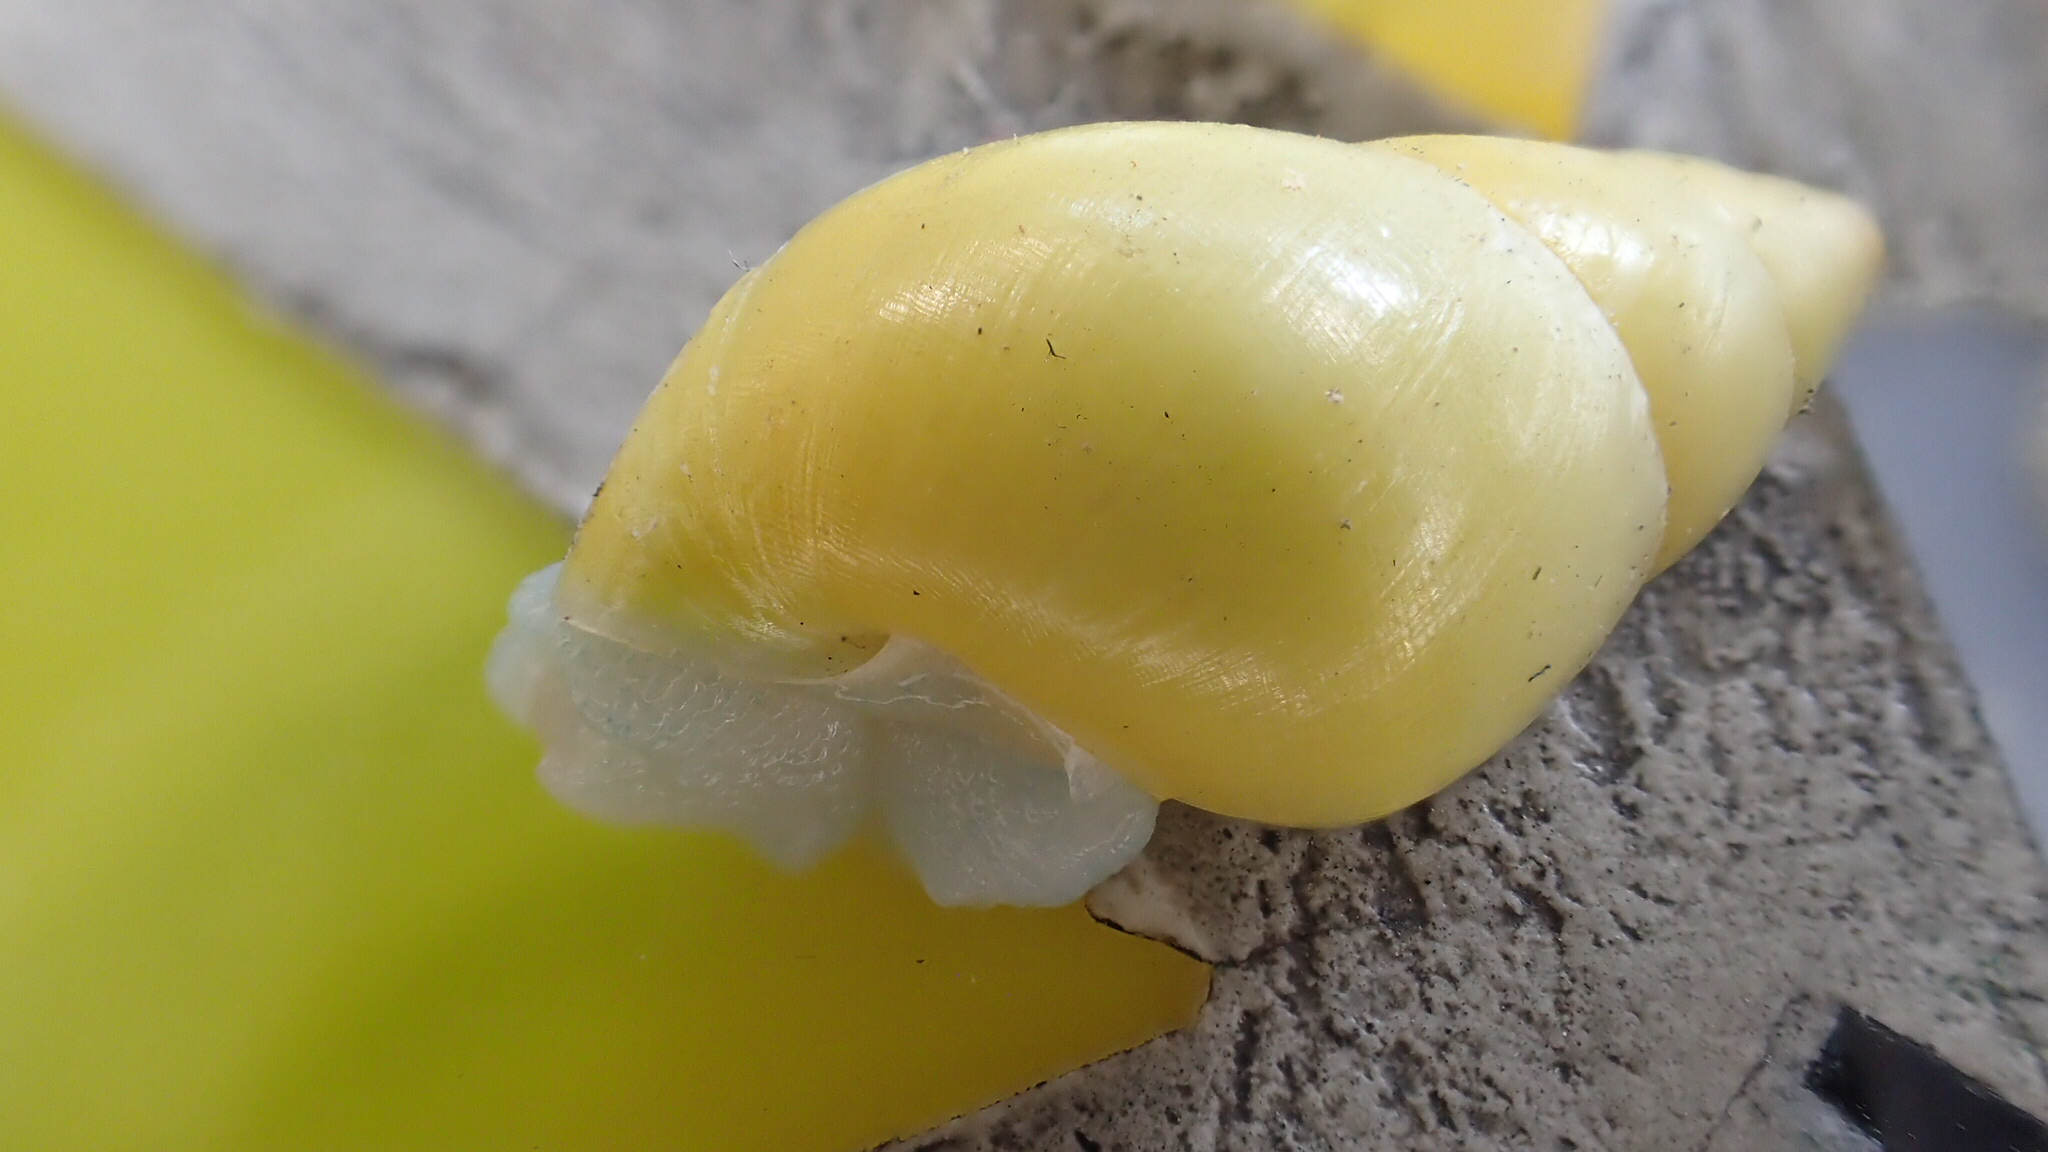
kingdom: Animalia
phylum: Mollusca
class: Gastropoda
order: Stylommatophora
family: Bulimulidae
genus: Drymaeus
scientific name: Drymaeus sulphureus
